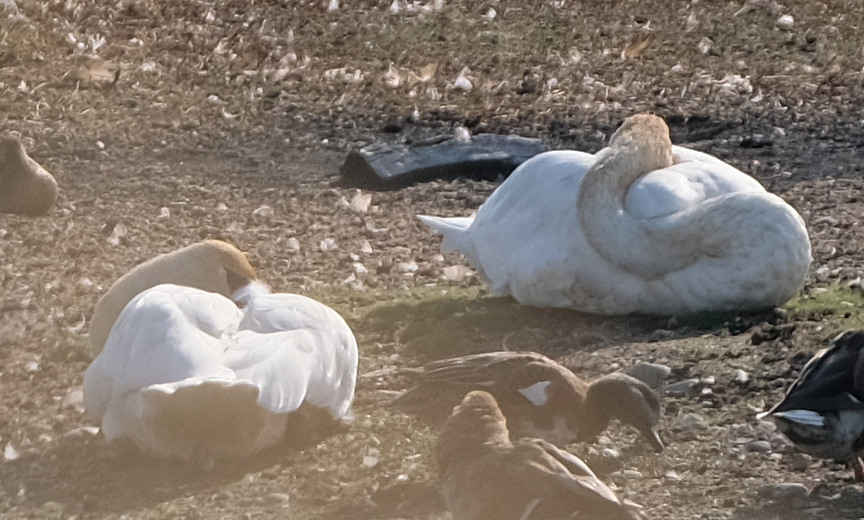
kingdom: Animalia
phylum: Chordata
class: Aves
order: Anseriformes
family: Anatidae
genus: Cygnus
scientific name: Cygnus buccinator
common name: Trumpeter swan
